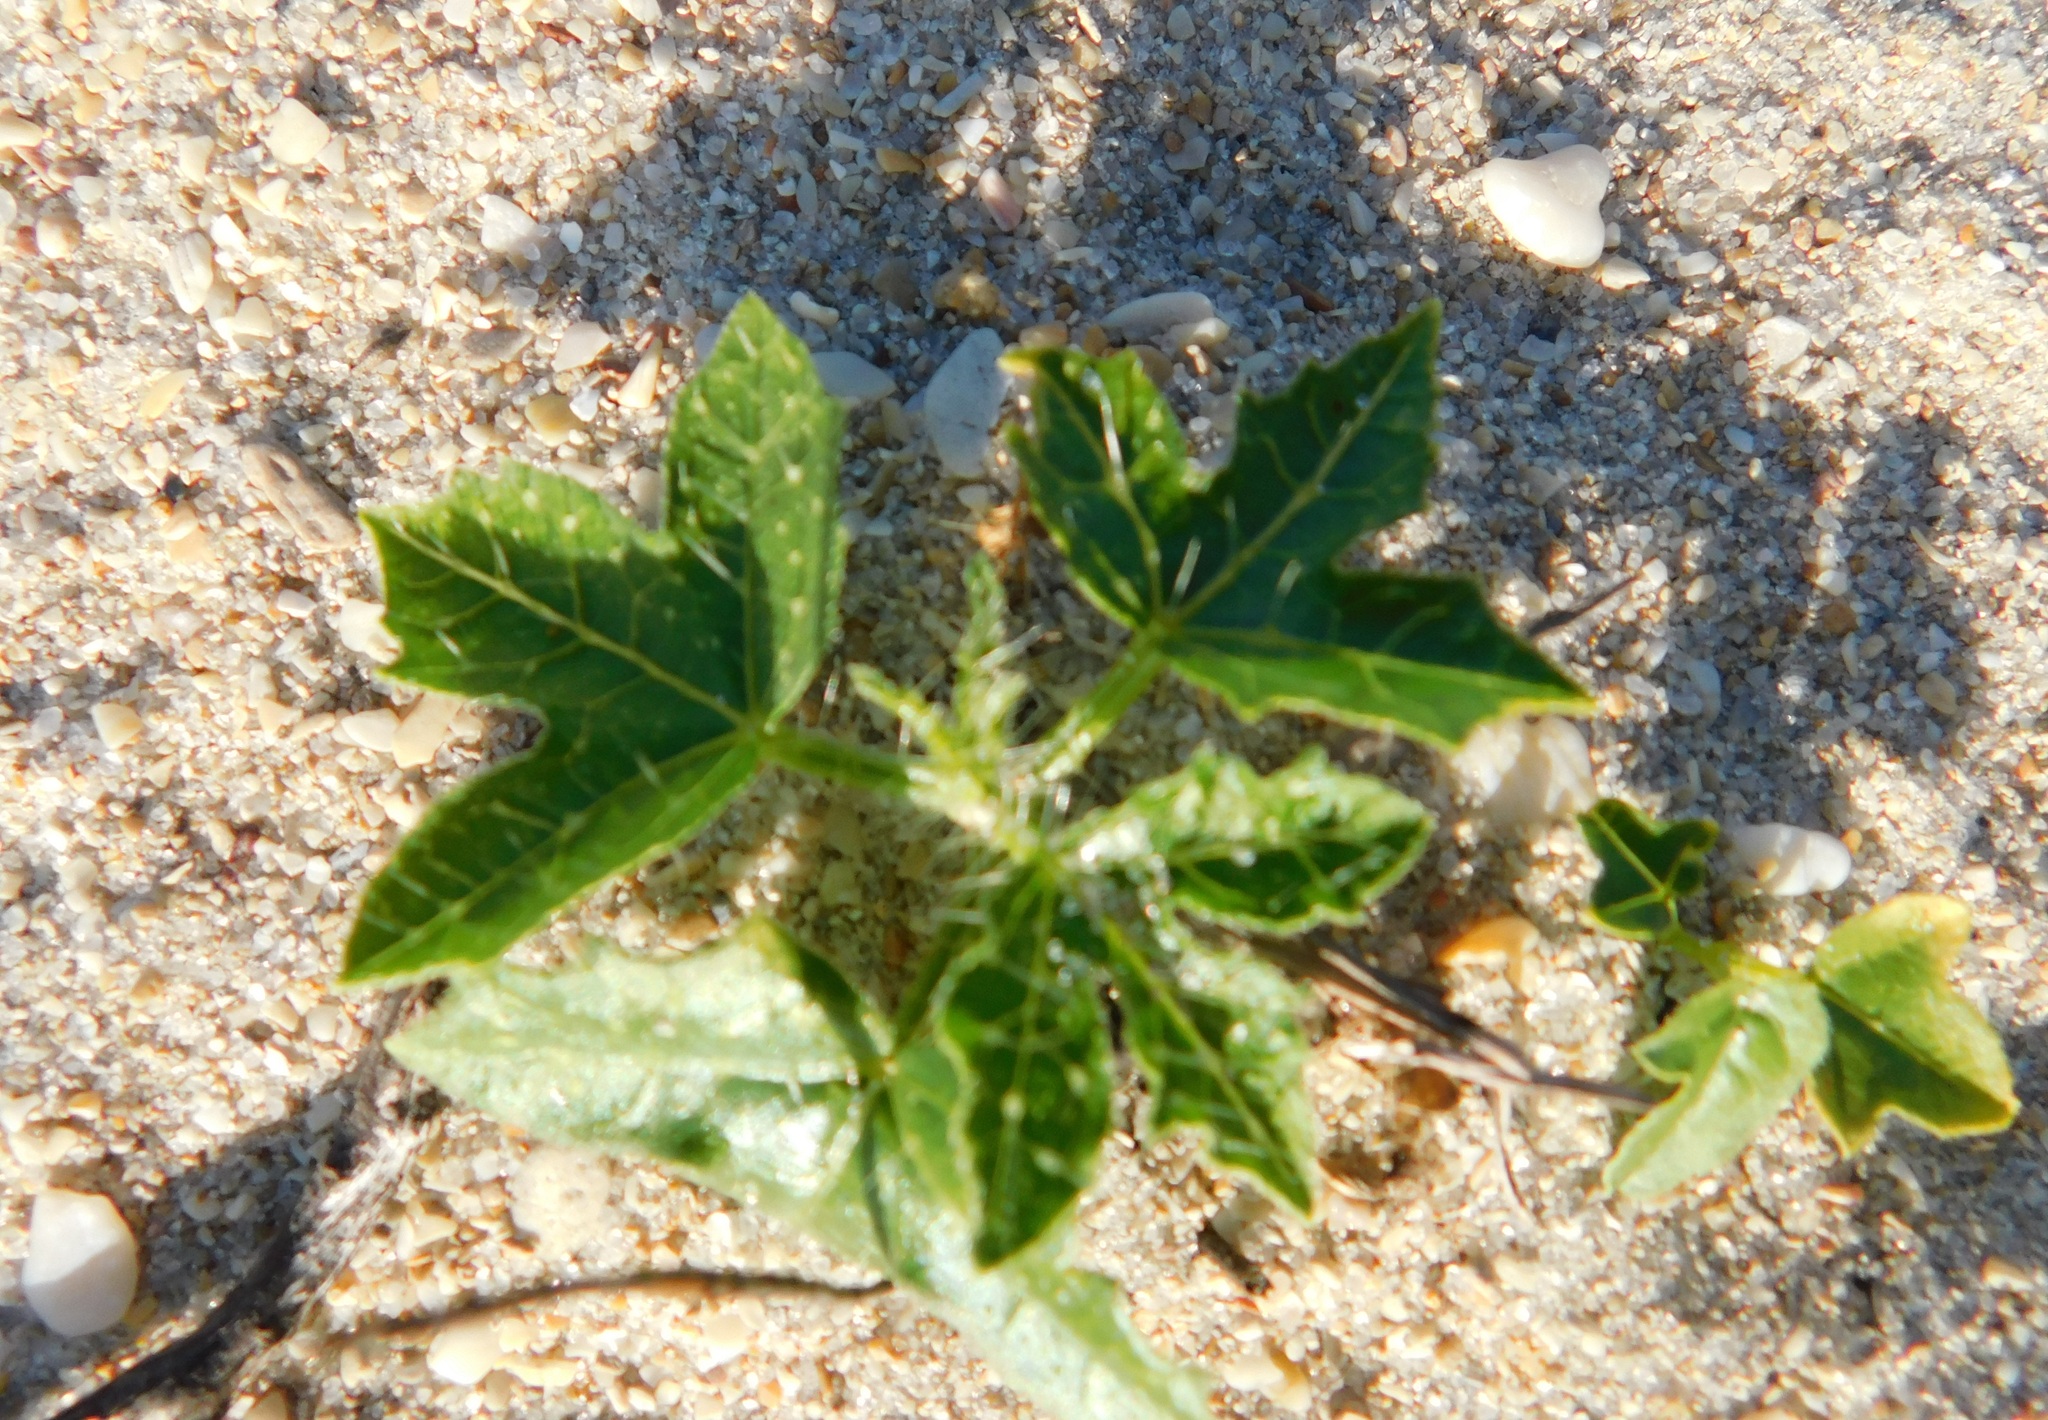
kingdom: Plantae
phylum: Tracheophyta
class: Magnoliopsida
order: Malpighiales
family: Euphorbiaceae
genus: Cnidoscolus
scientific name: Cnidoscolus stimulosus
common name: Bull-nettle
